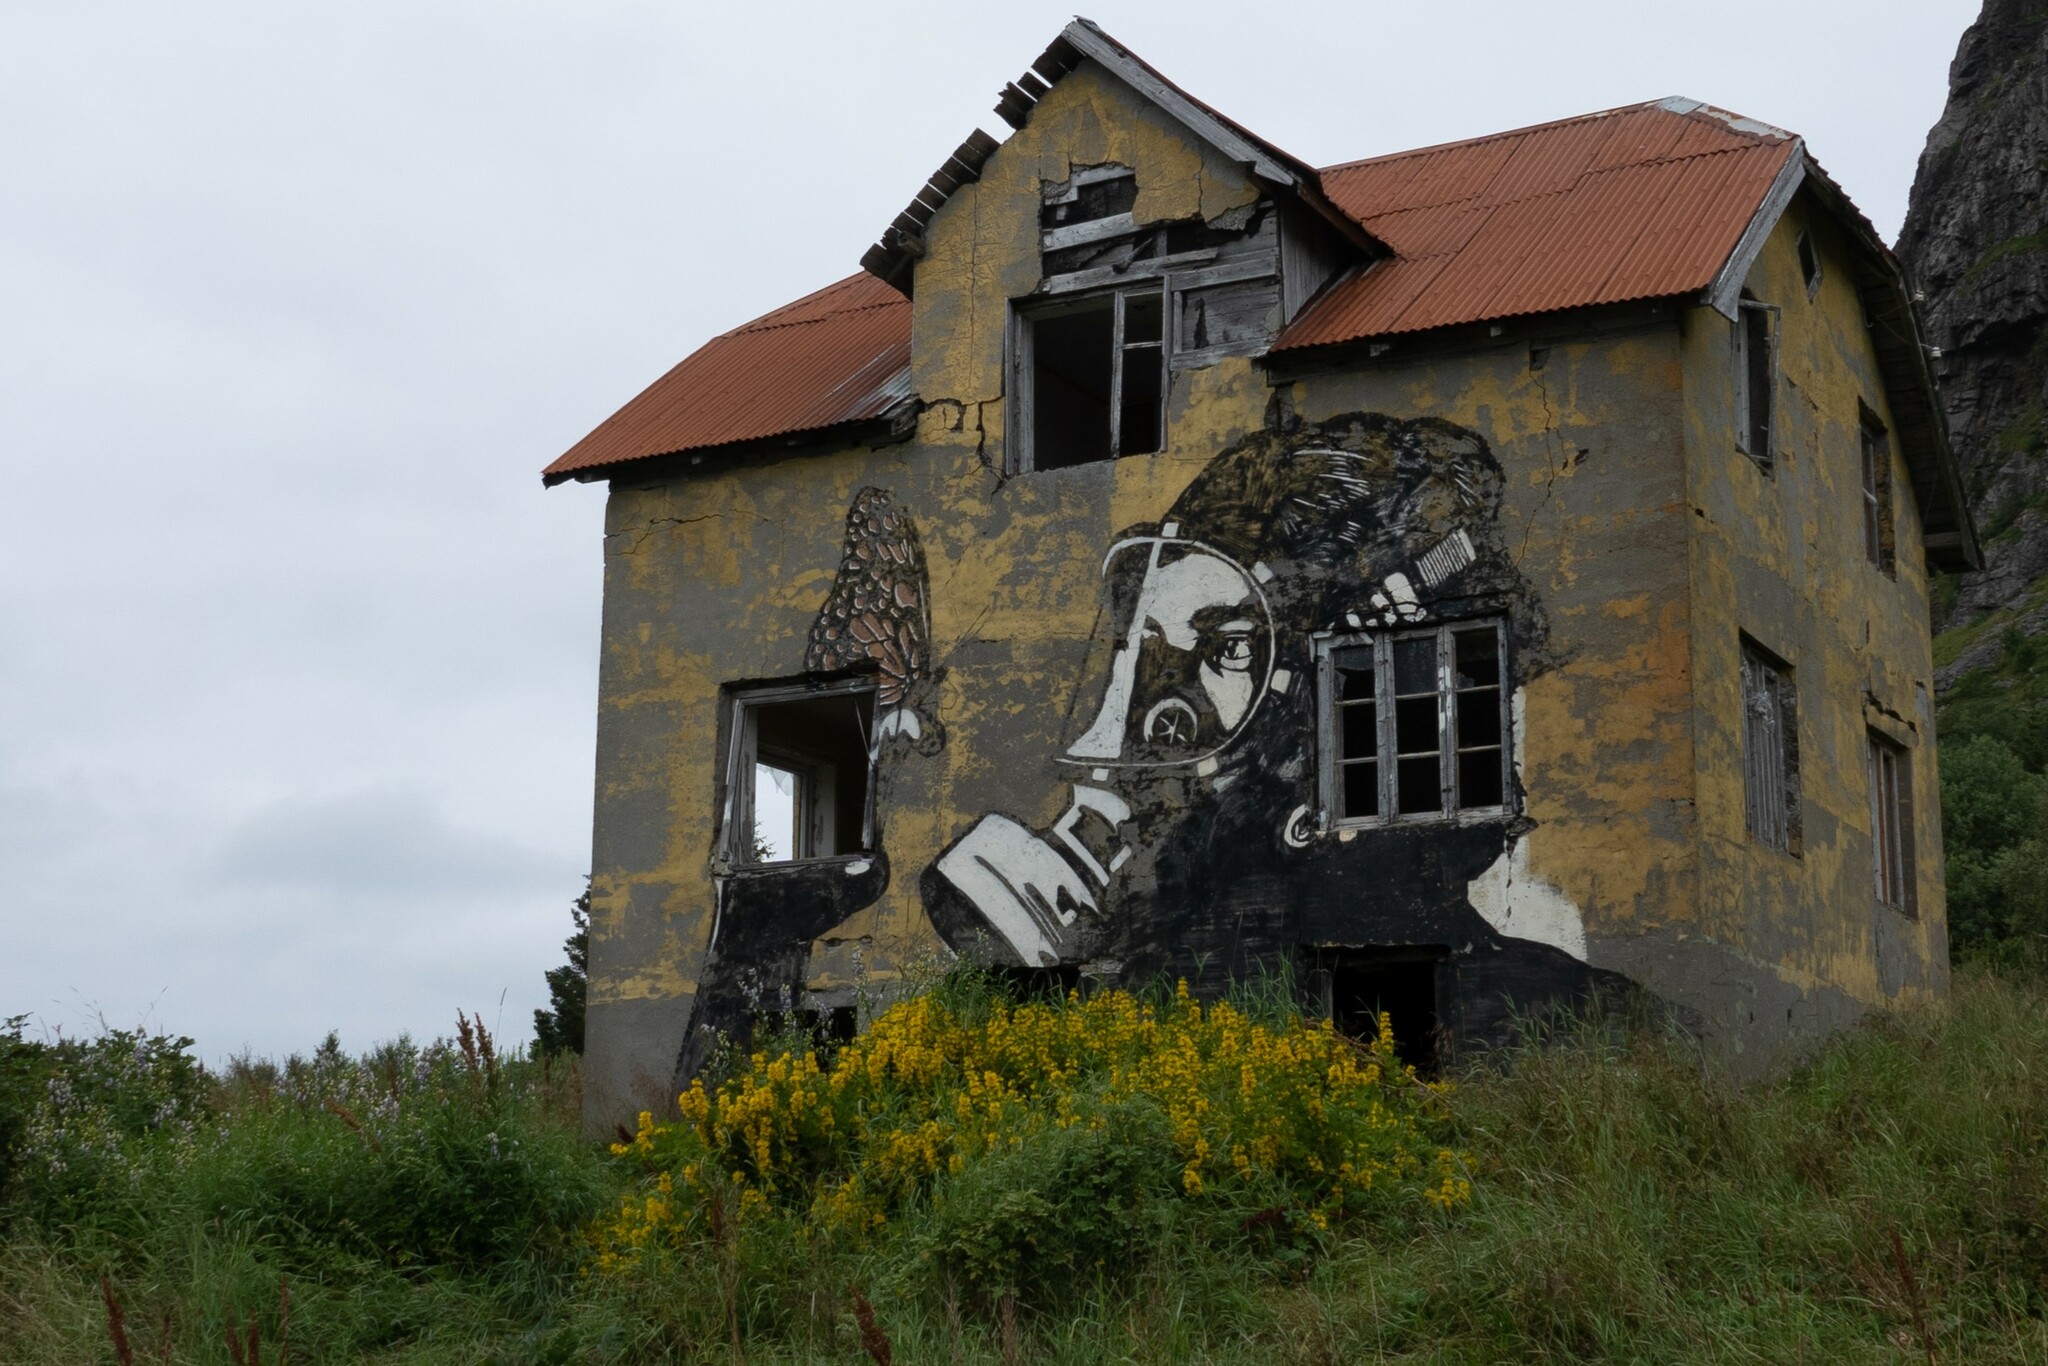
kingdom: Plantae
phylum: Tracheophyta
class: Magnoliopsida
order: Ericales
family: Primulaceae
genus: Lysimachia
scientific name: Lysimachia punctata
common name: Dotted loosestrife
